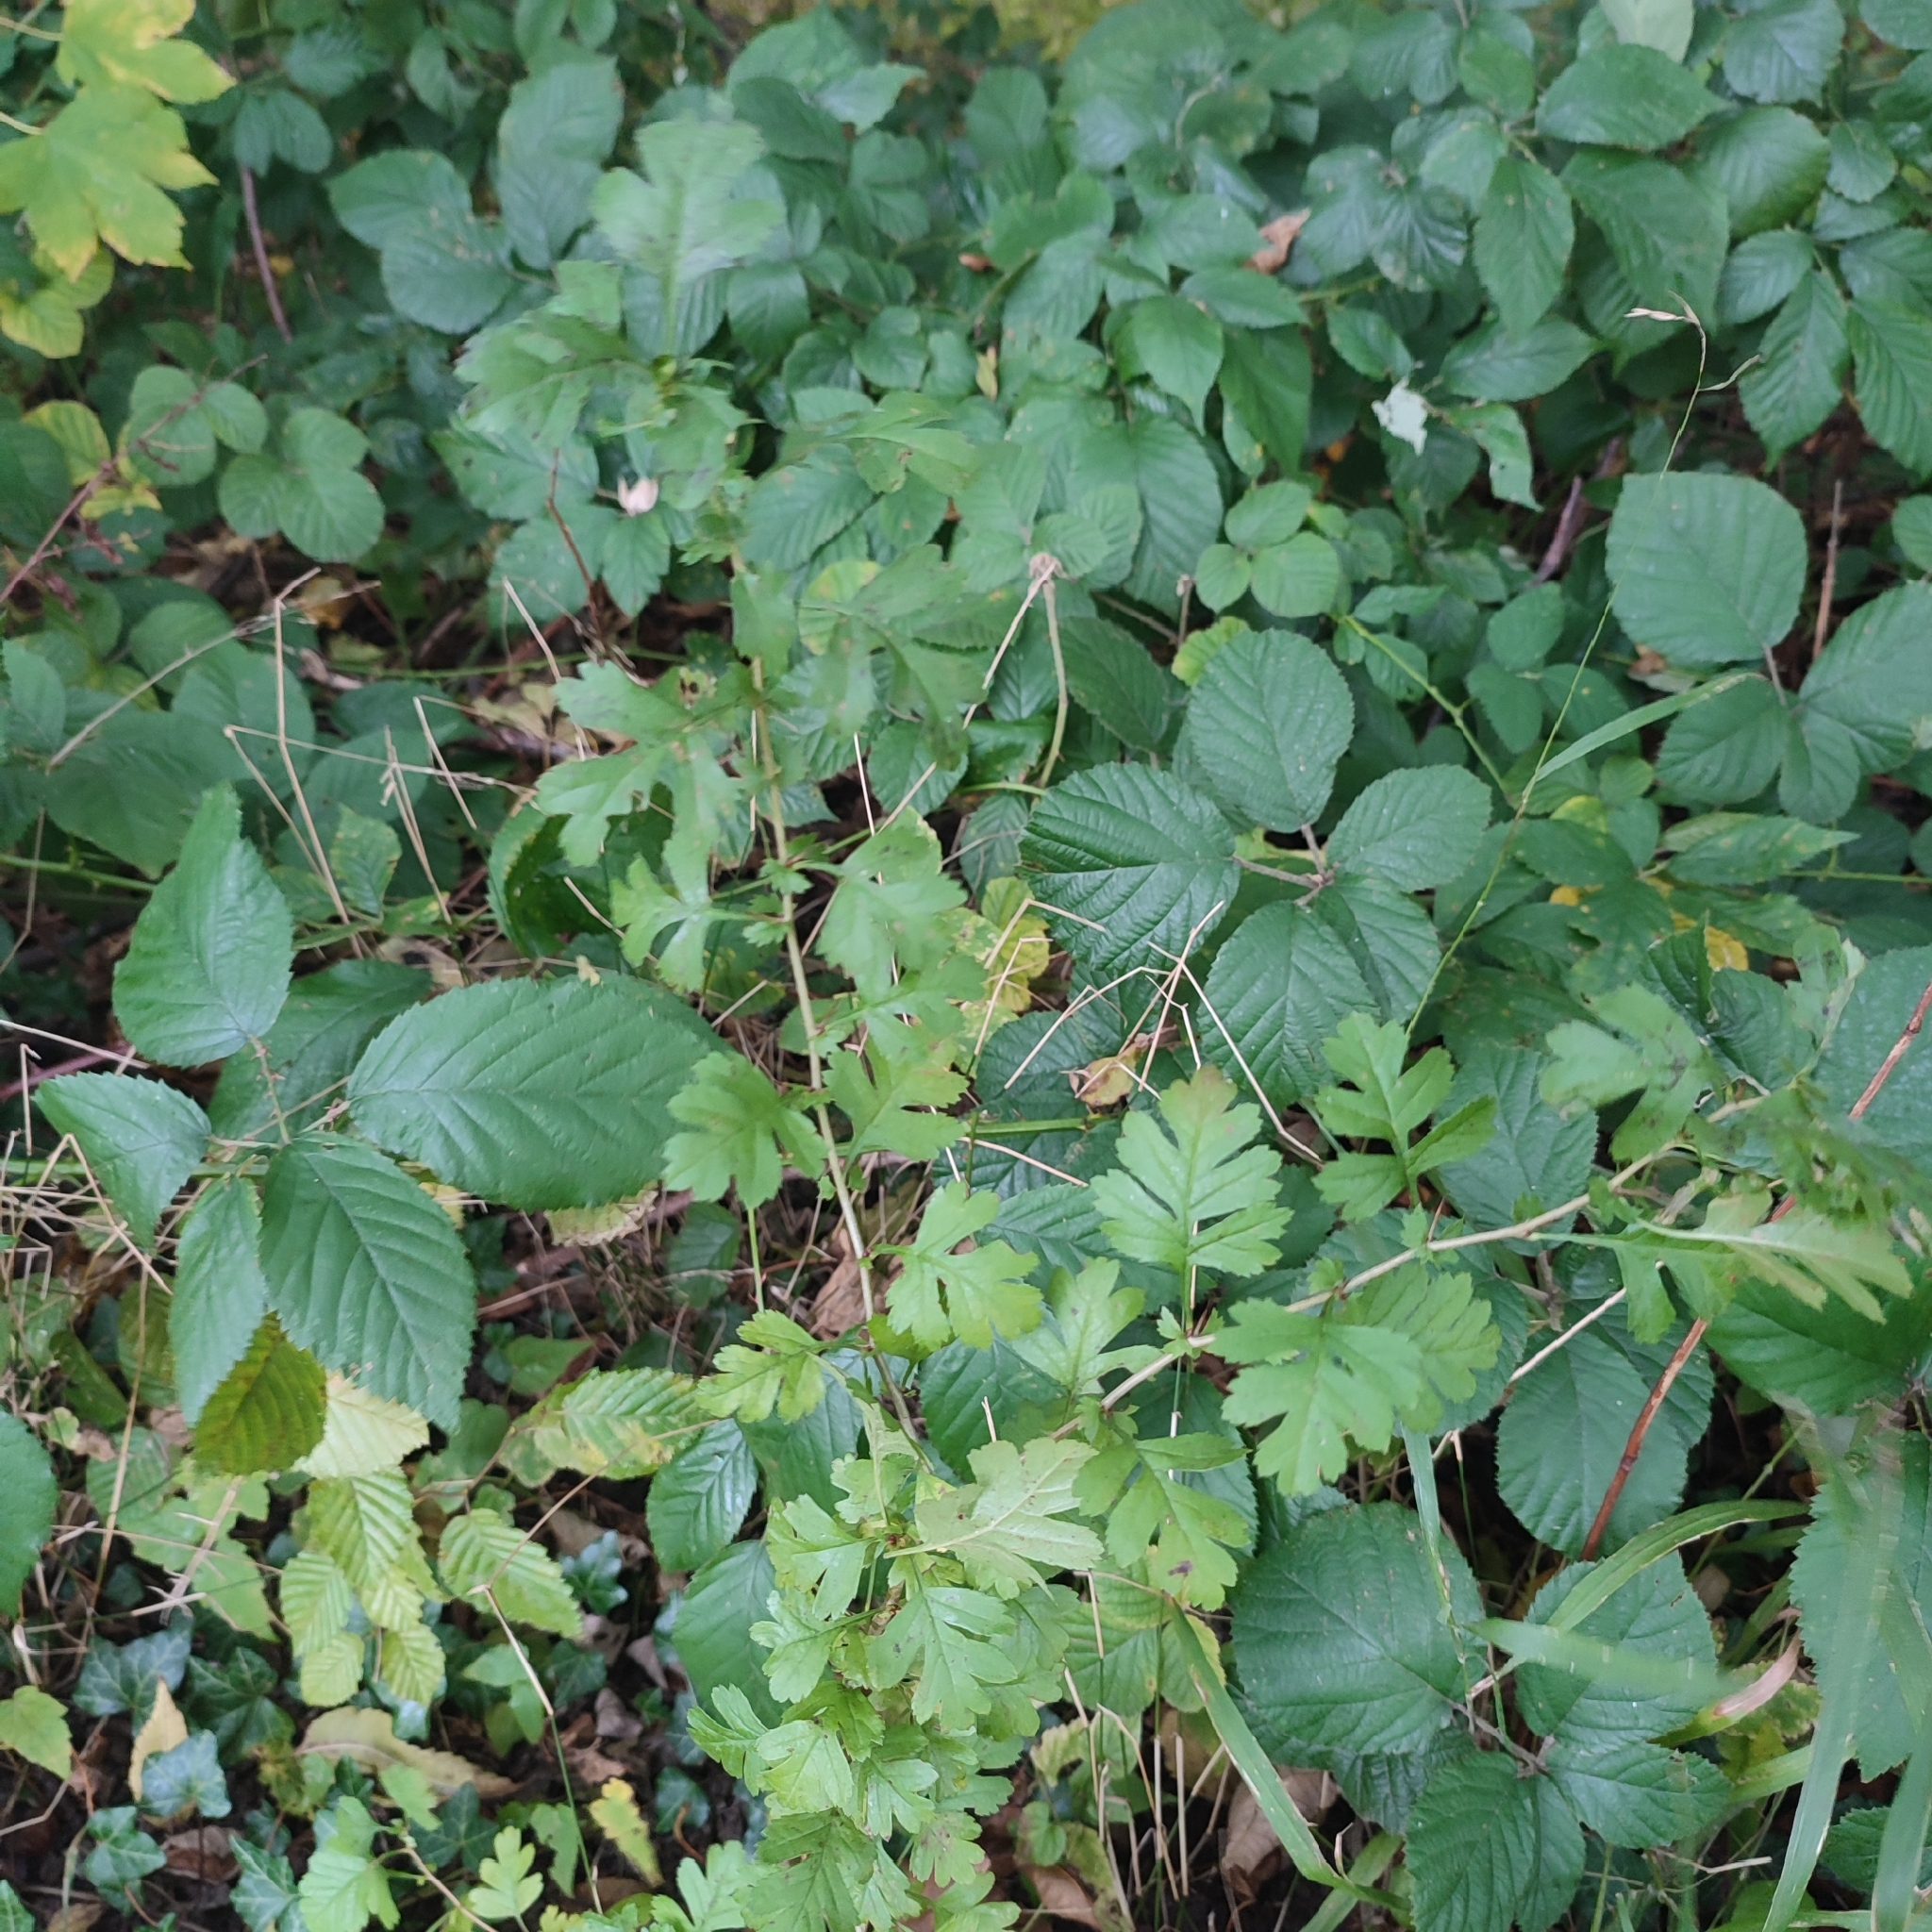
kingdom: Plantae
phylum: Tracheophyta
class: Magnoliopsida
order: Rosales
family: Rosaceae
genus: Crataegus
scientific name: Crataegus monogyna
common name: Hawthorn
